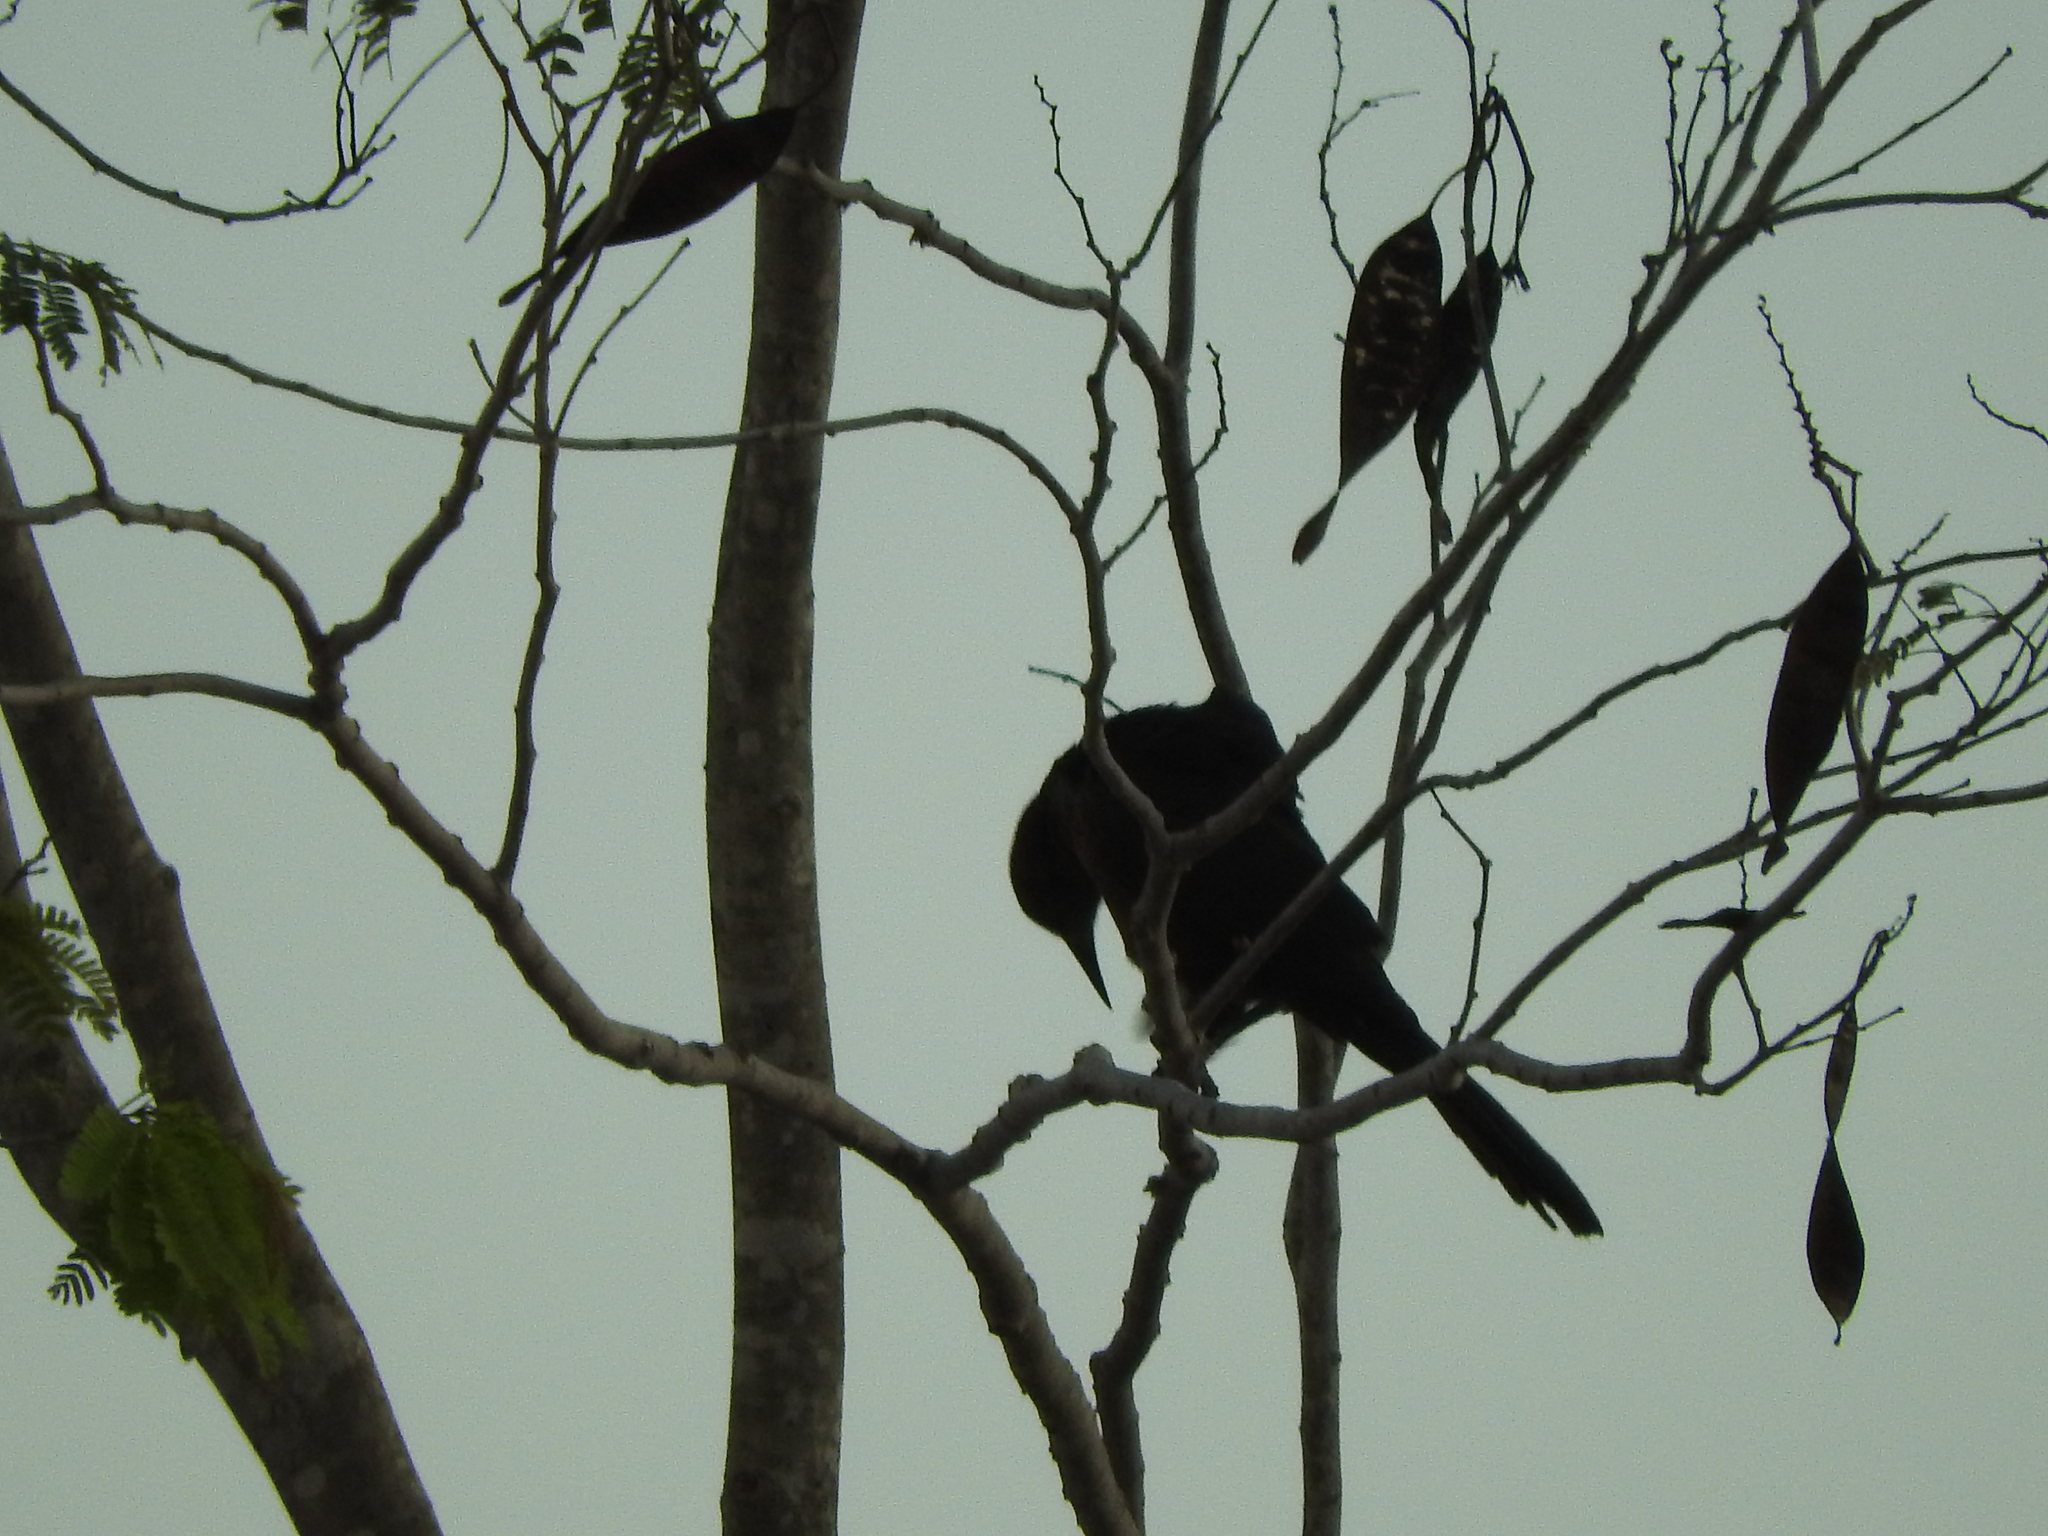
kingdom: Animalia
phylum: Chordata
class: Aves
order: Passeriformes
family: Icteridae
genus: Quiscalus
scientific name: Quiscalus mexicanus
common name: Great-tailed grackle
